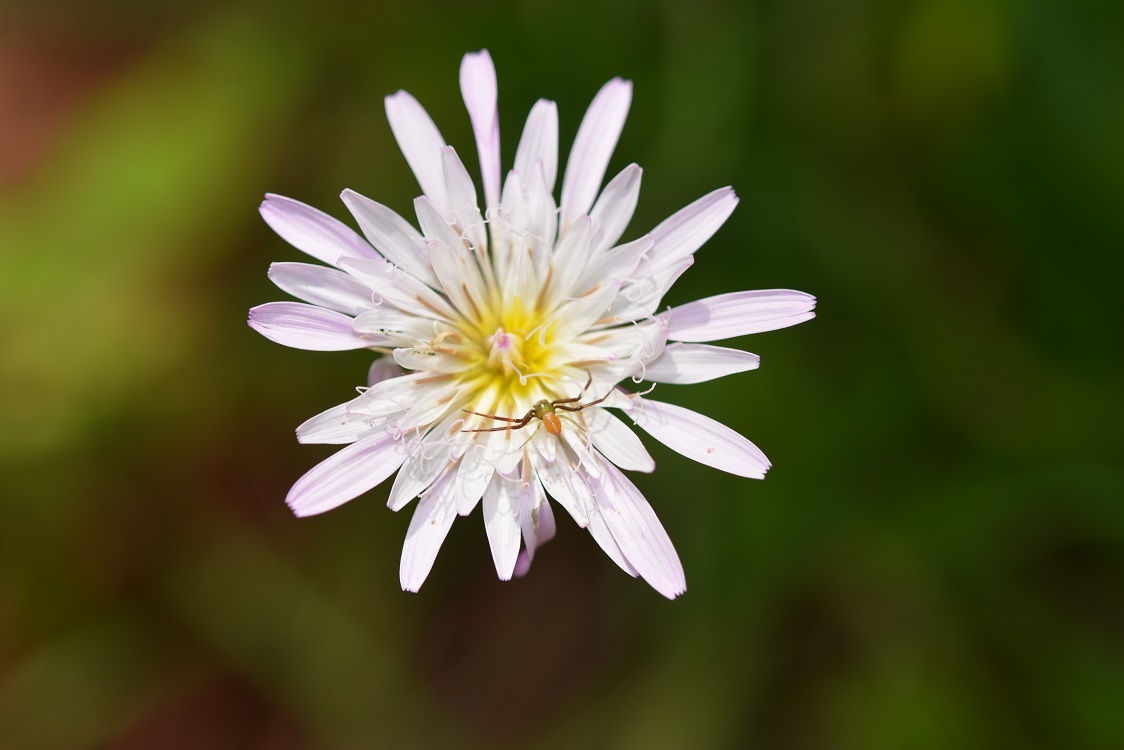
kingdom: Plantae
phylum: Tracheophyta
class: Magnoliopsida
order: Asterales
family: Asteraceae
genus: Pinaropappus
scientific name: Pinaropappus spathulatus
